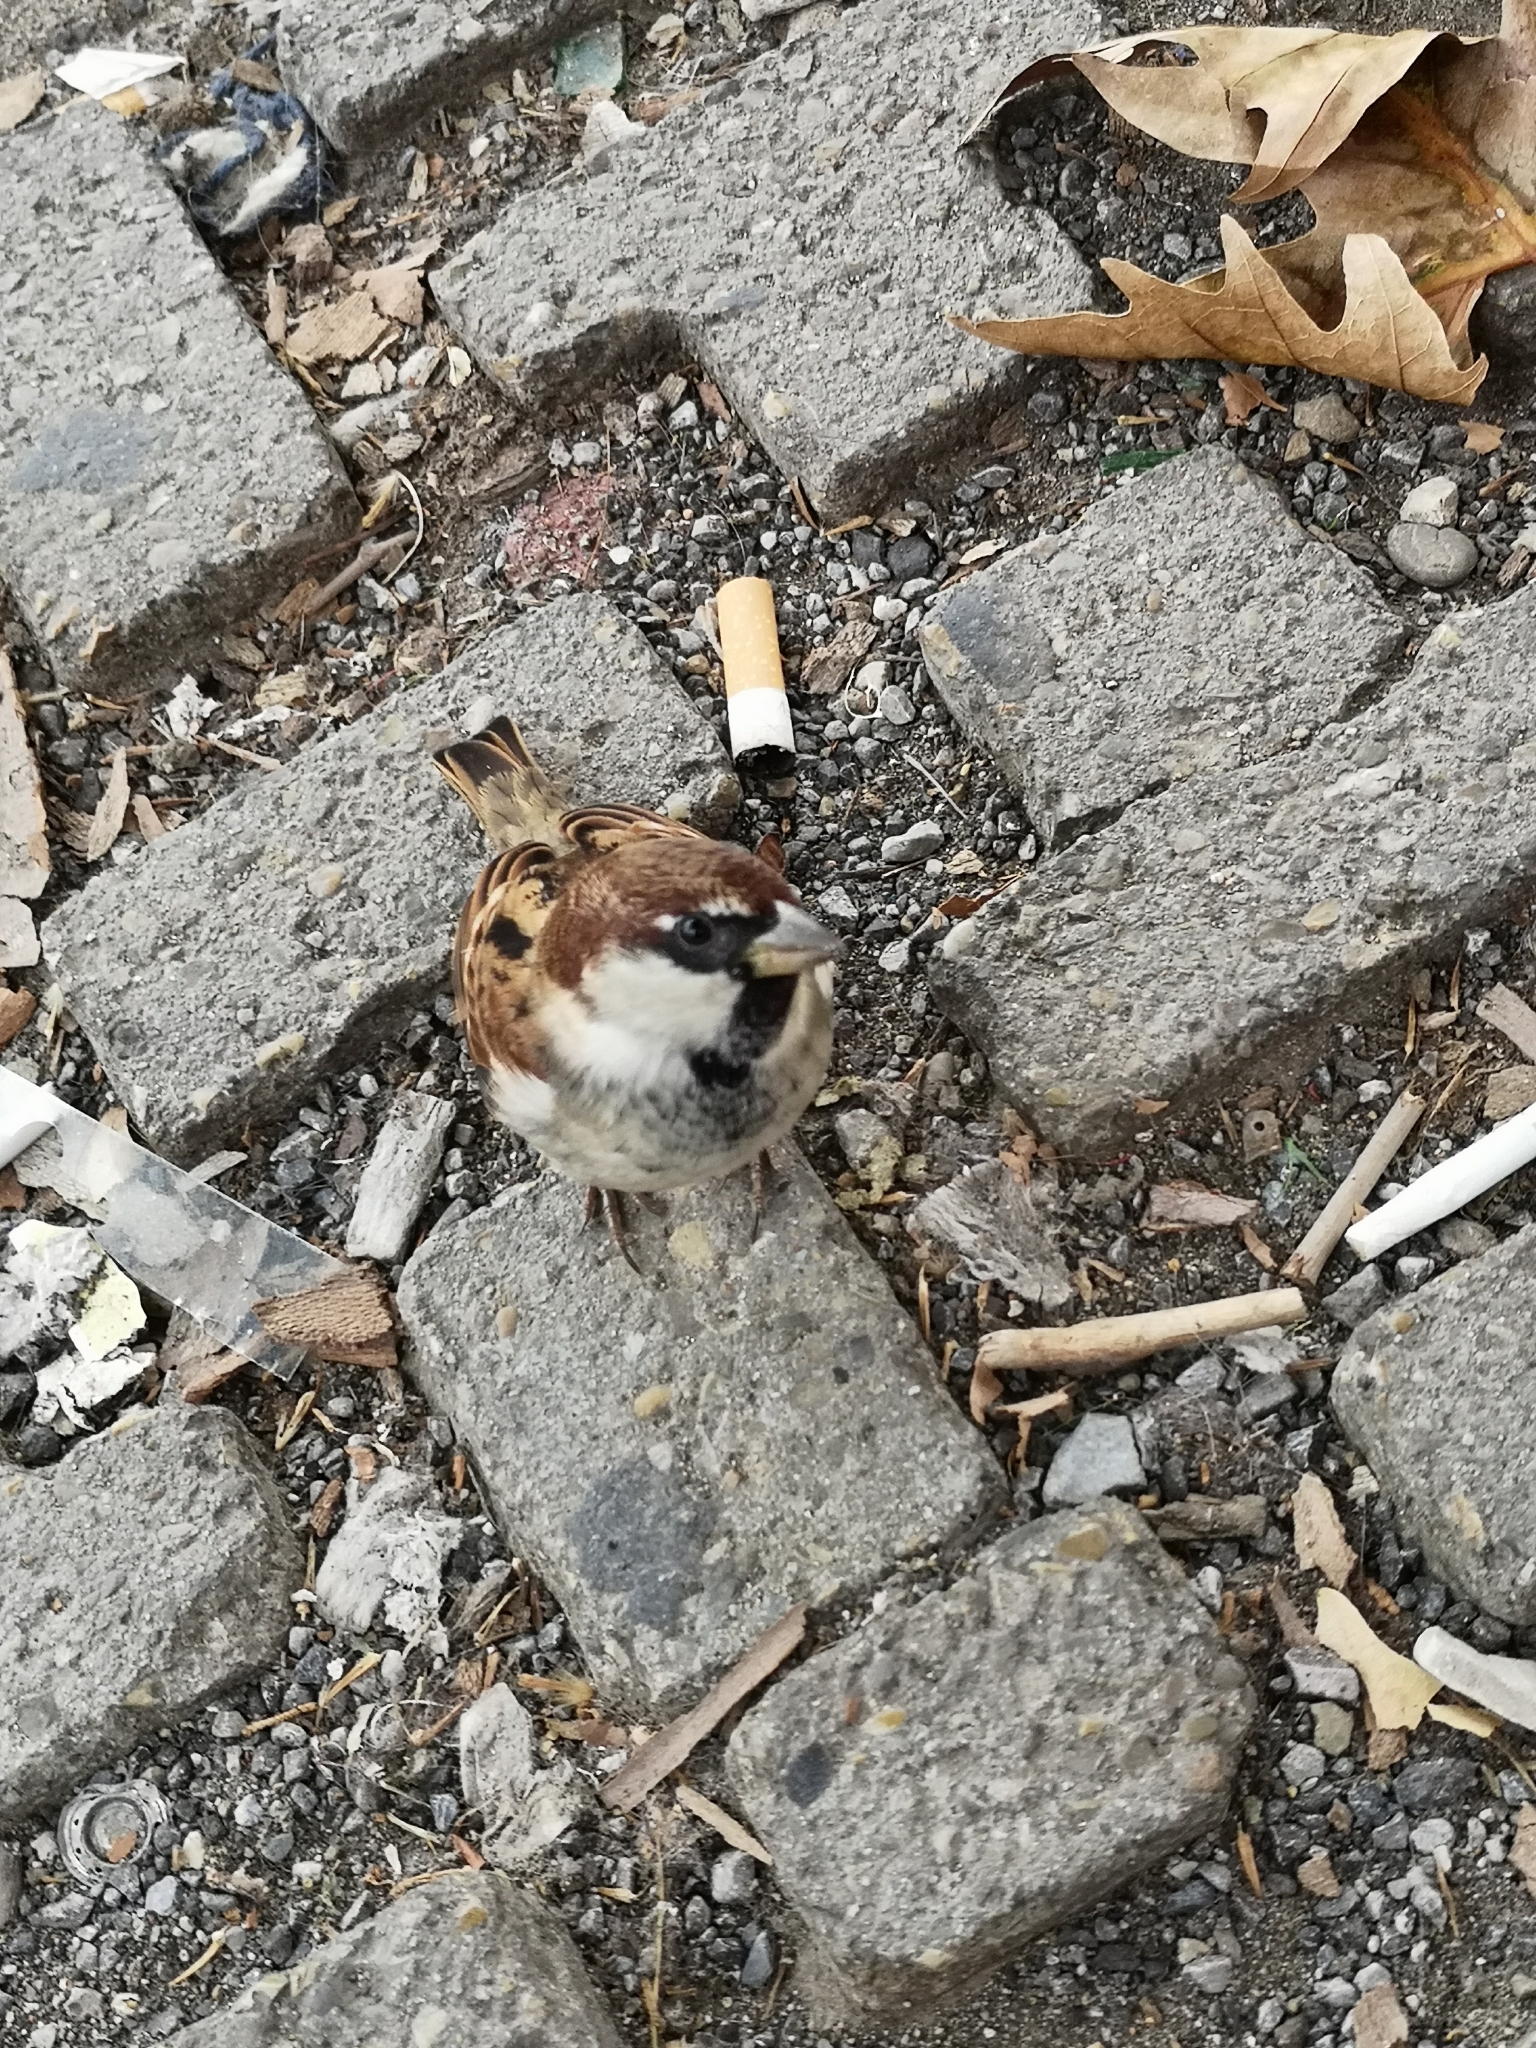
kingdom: Animalia
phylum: Chordata
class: Aves
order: Passeriformes
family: Passeridae
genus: Passer
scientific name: Passer italiae
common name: Italian sparrow
